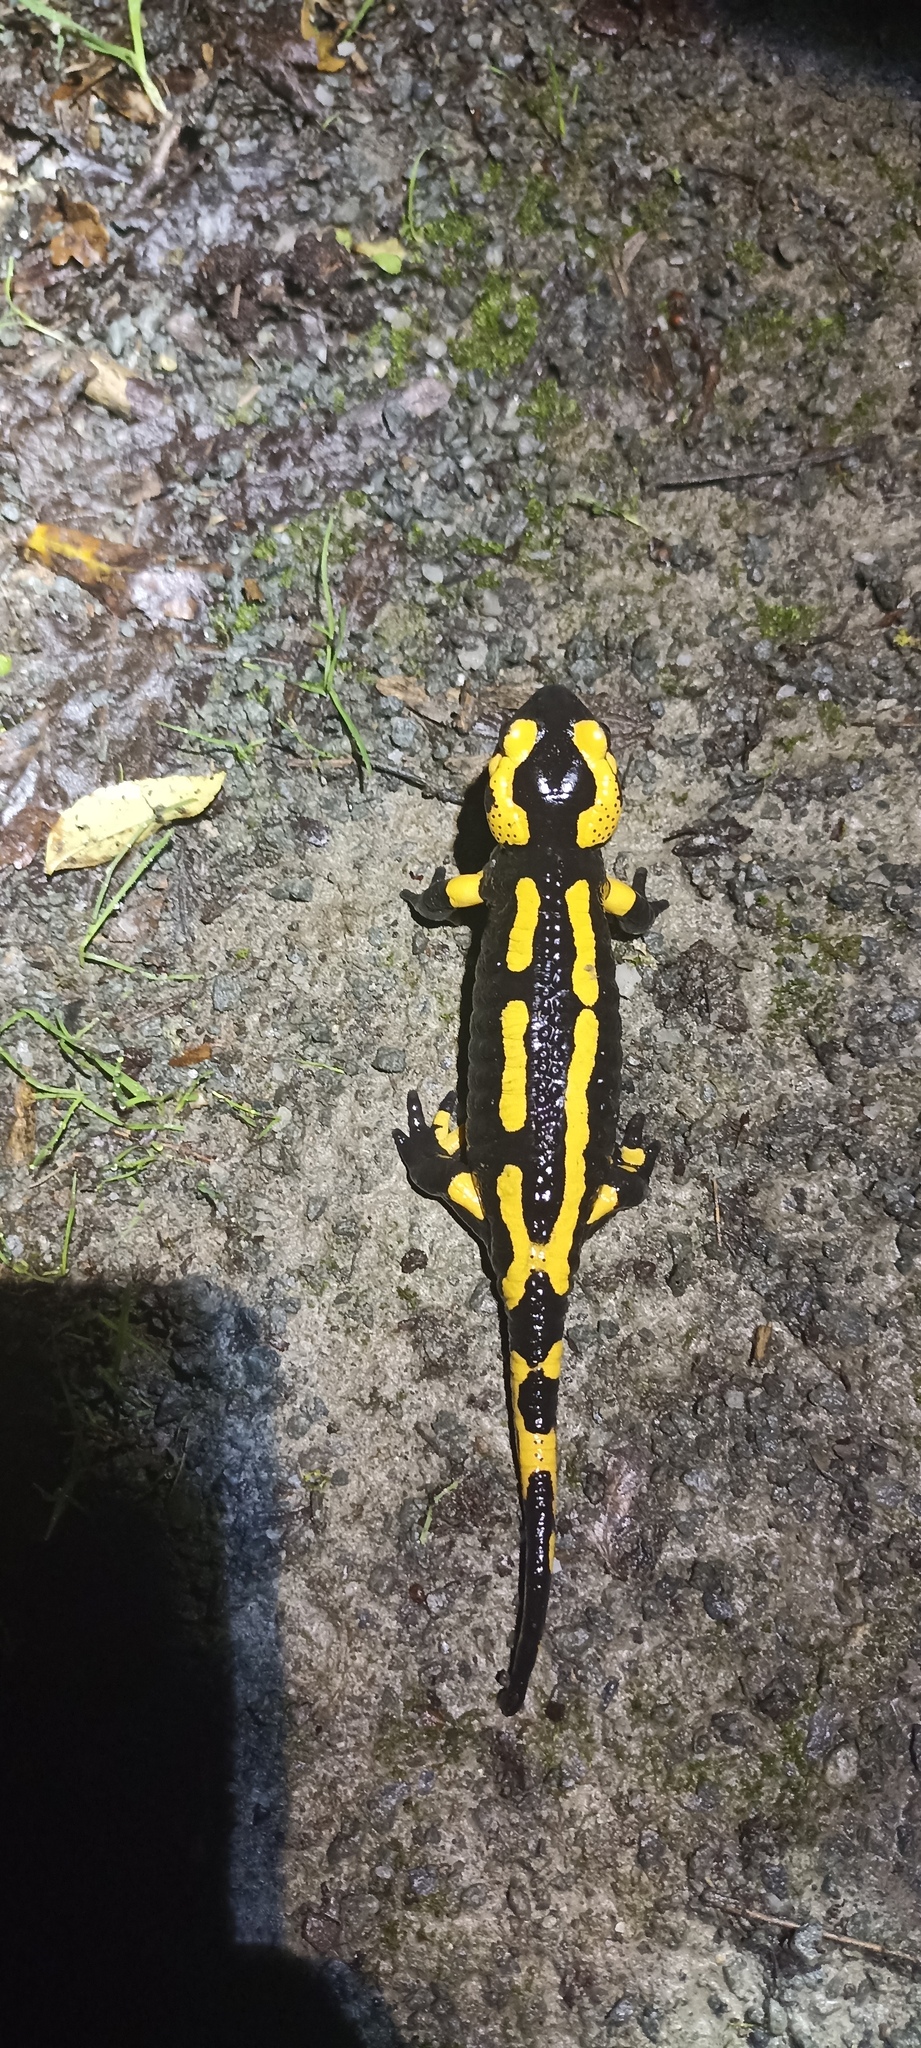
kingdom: Animalia
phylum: Chordata
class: Amphibia
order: Caudata
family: Salamandridae
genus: Salamandra
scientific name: Salamandra salamandra
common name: Fire salamander
